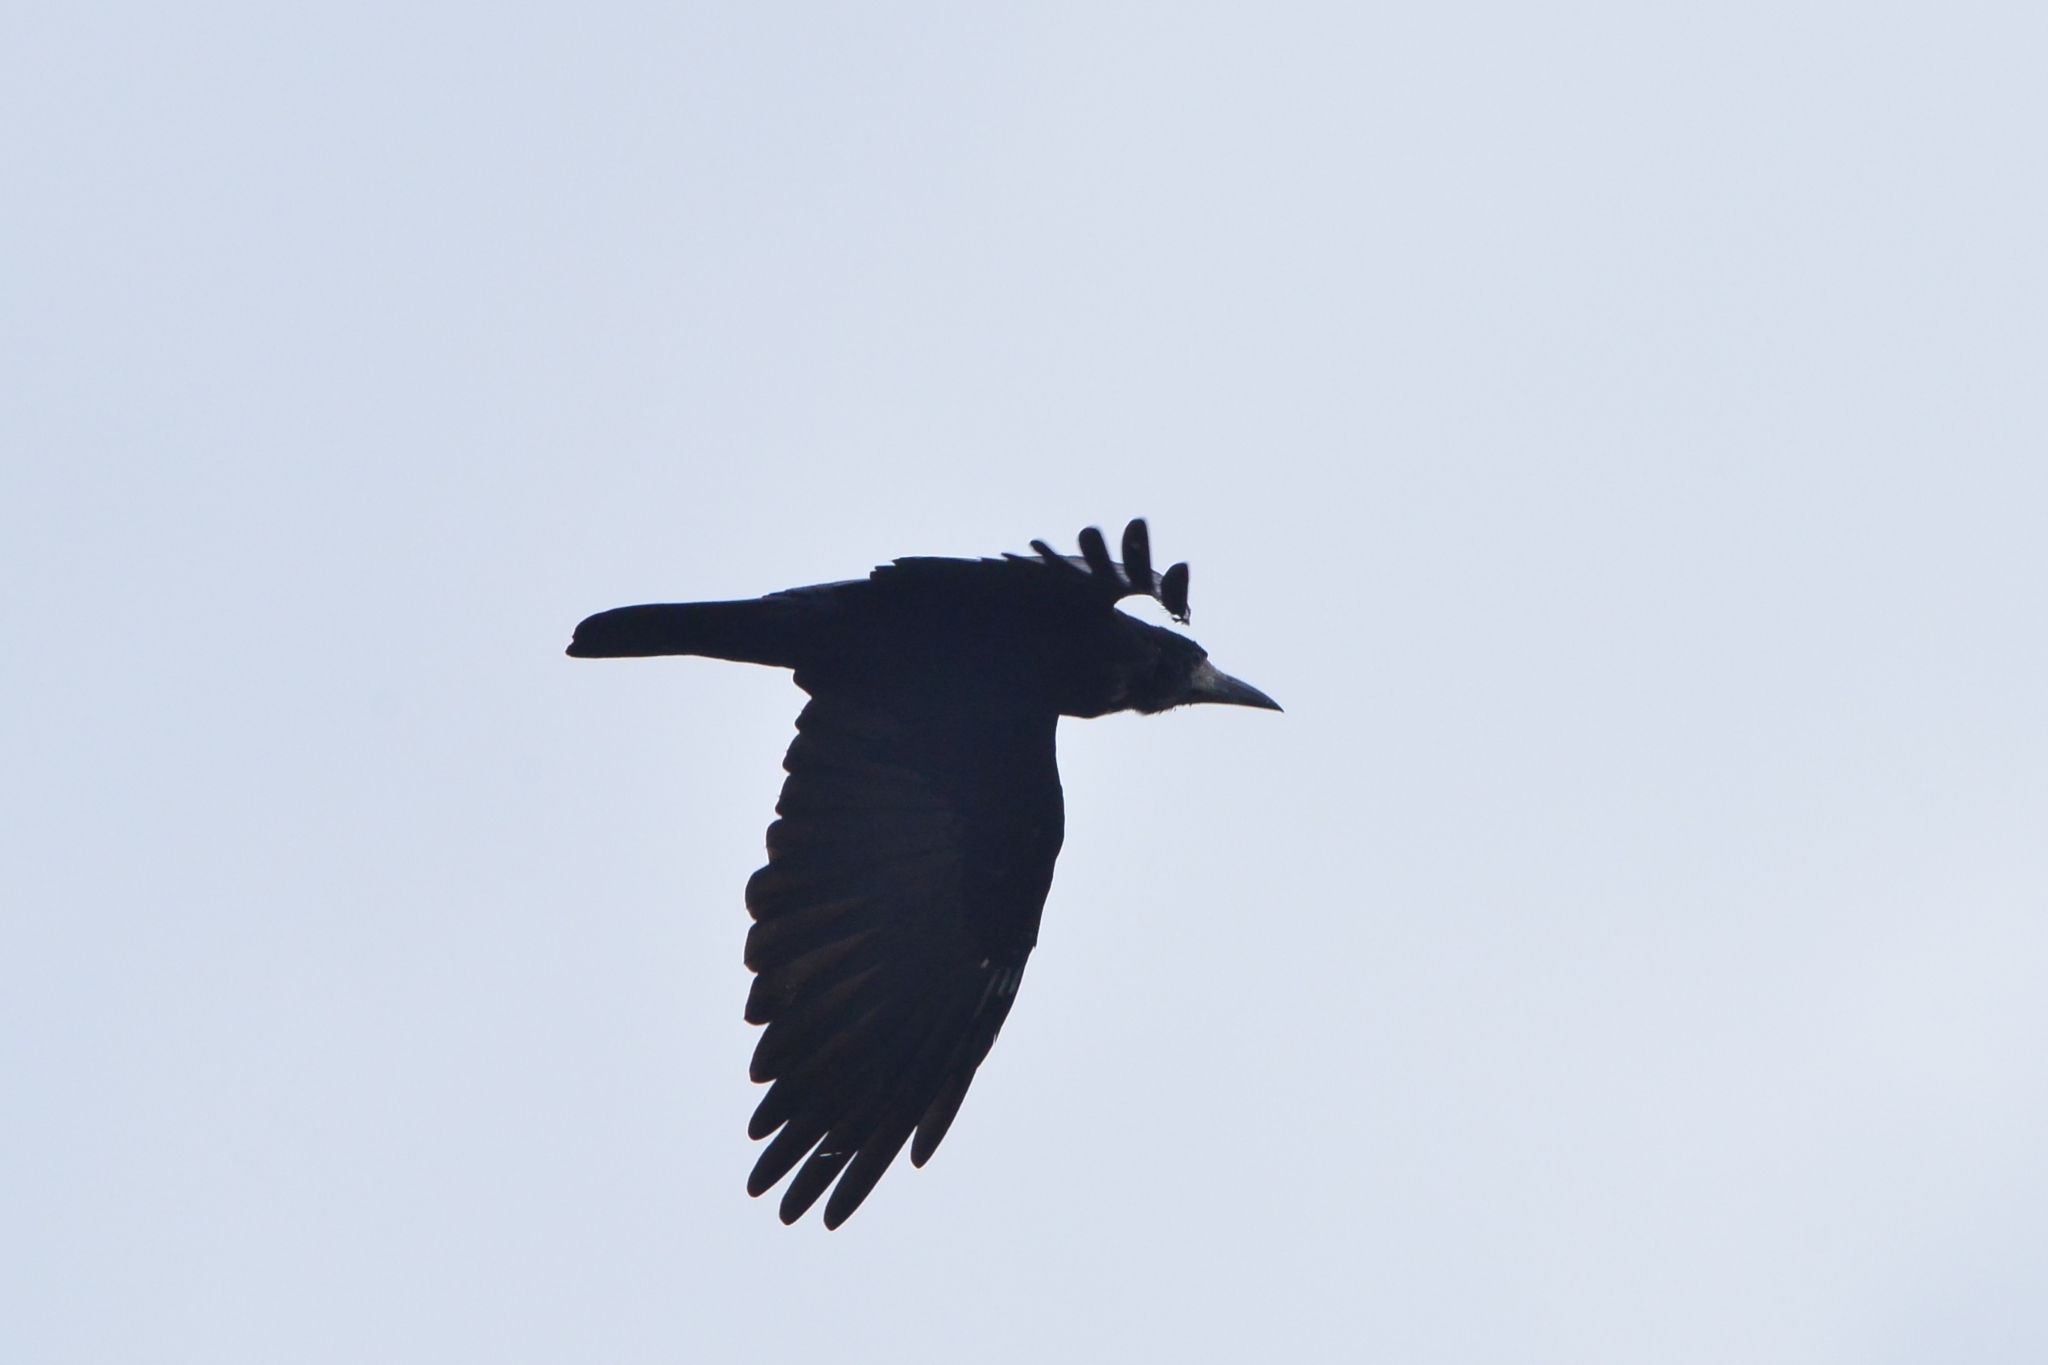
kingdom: Animalia
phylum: Chordata
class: Aves
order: Passeriformes
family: Corvidae
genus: Corvus
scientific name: Corvus frugilegus
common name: Rook
